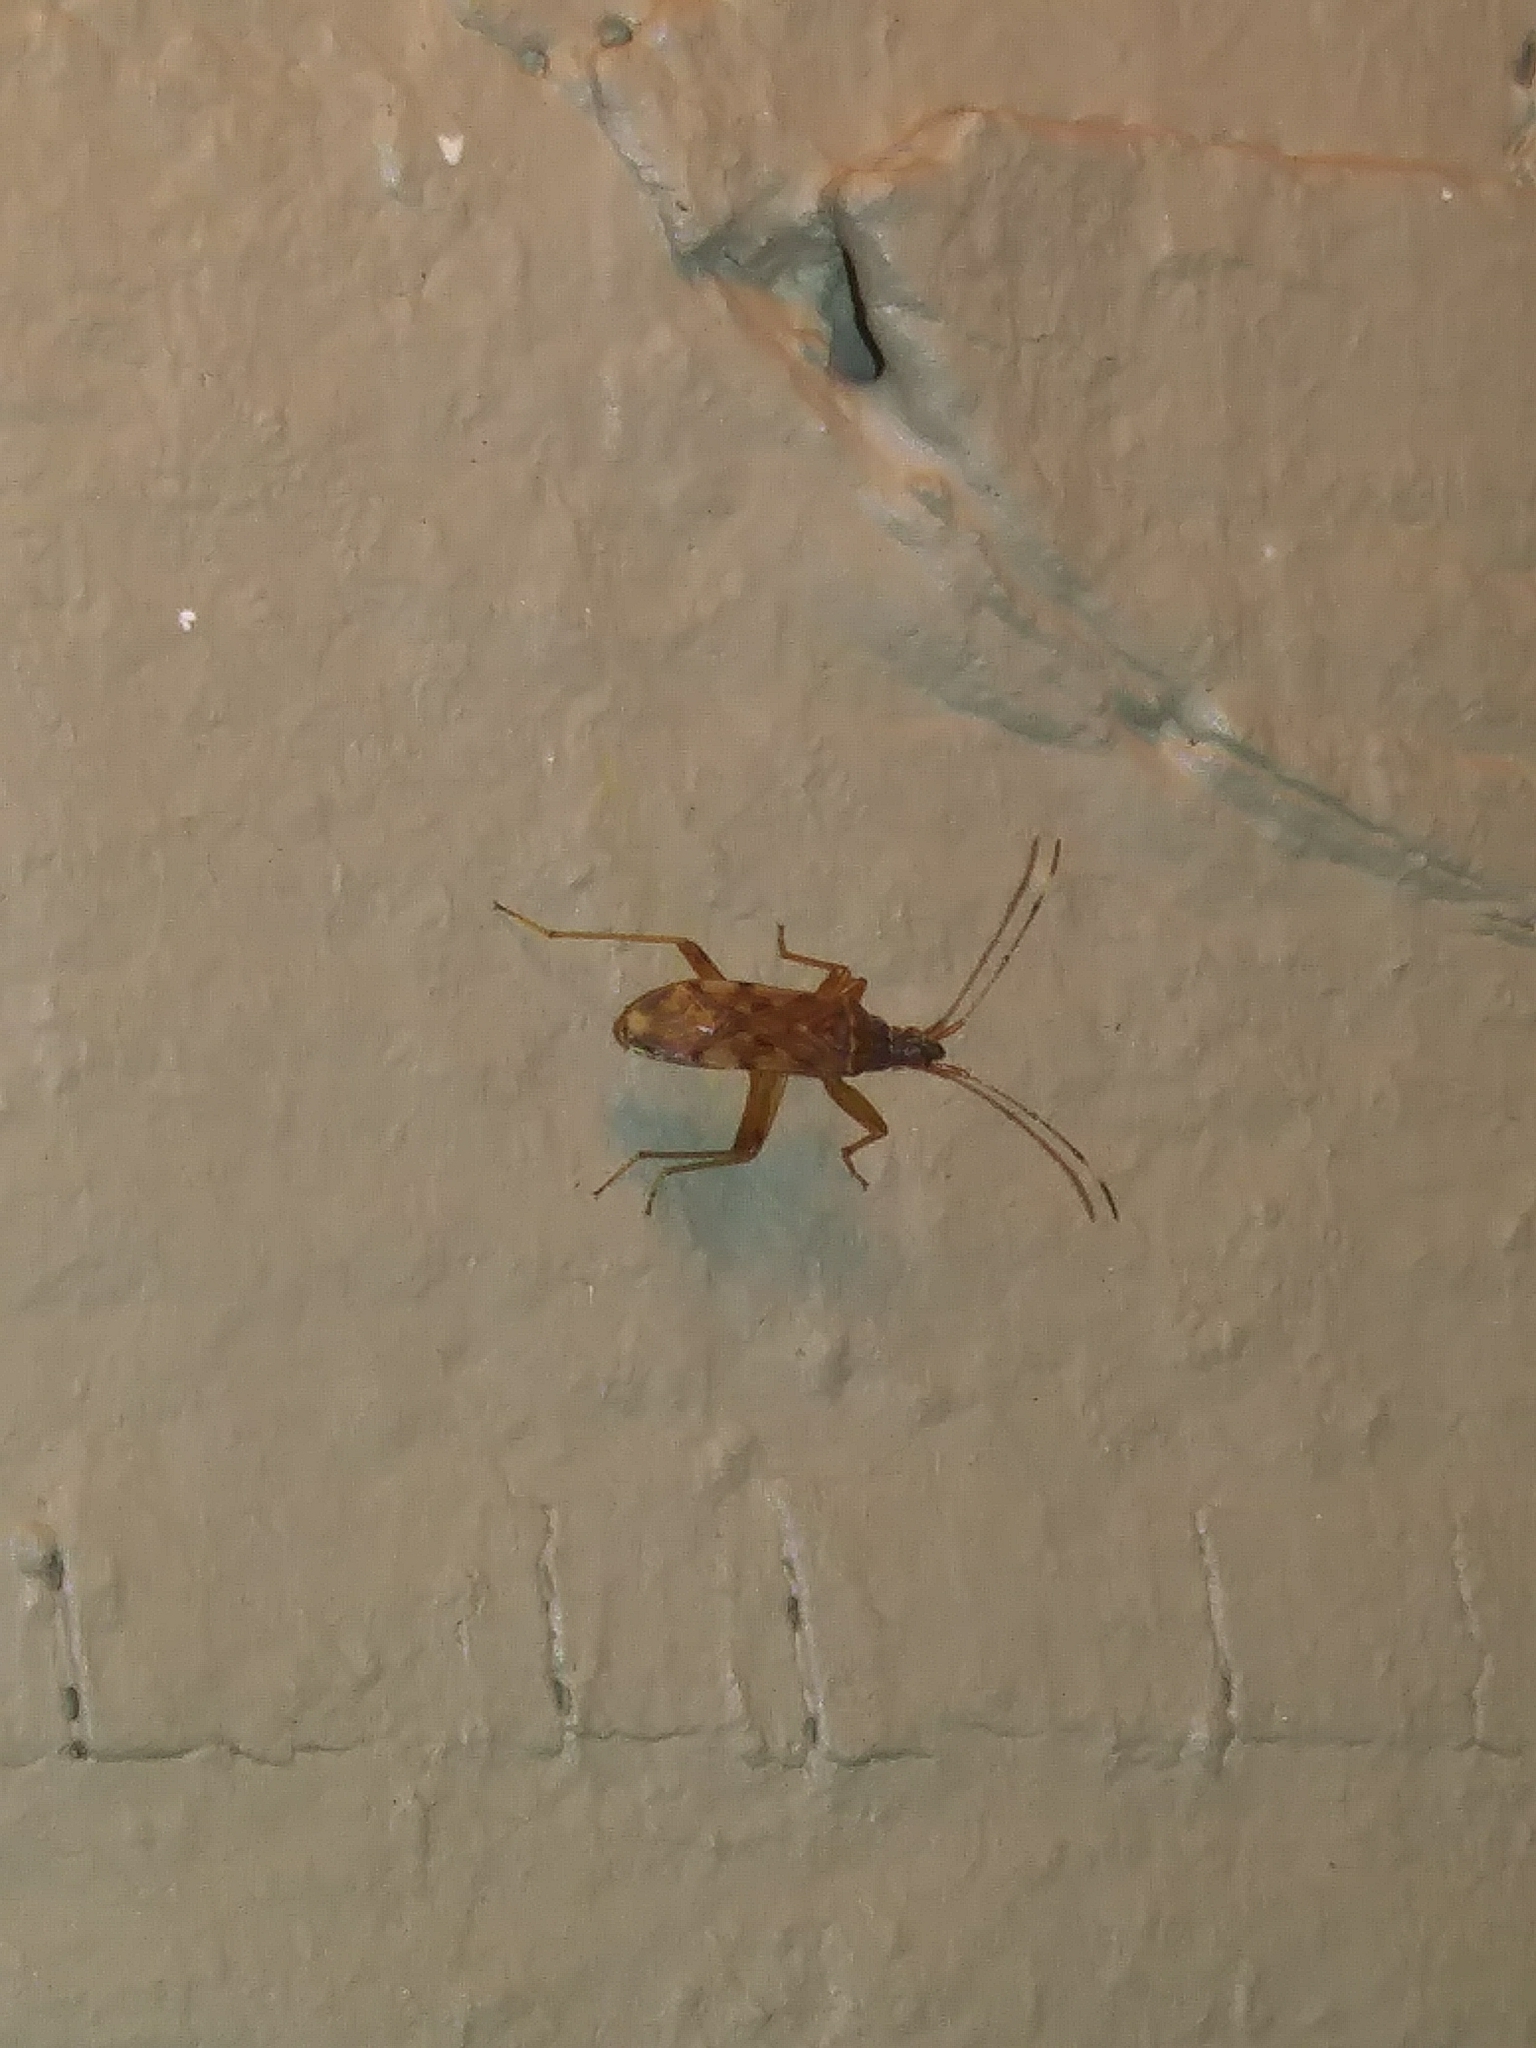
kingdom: Animalia
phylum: Arthropoda
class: Insecta
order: Hemiptera
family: Rhyparochromidae
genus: Ozophora
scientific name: Ozophora picturata
